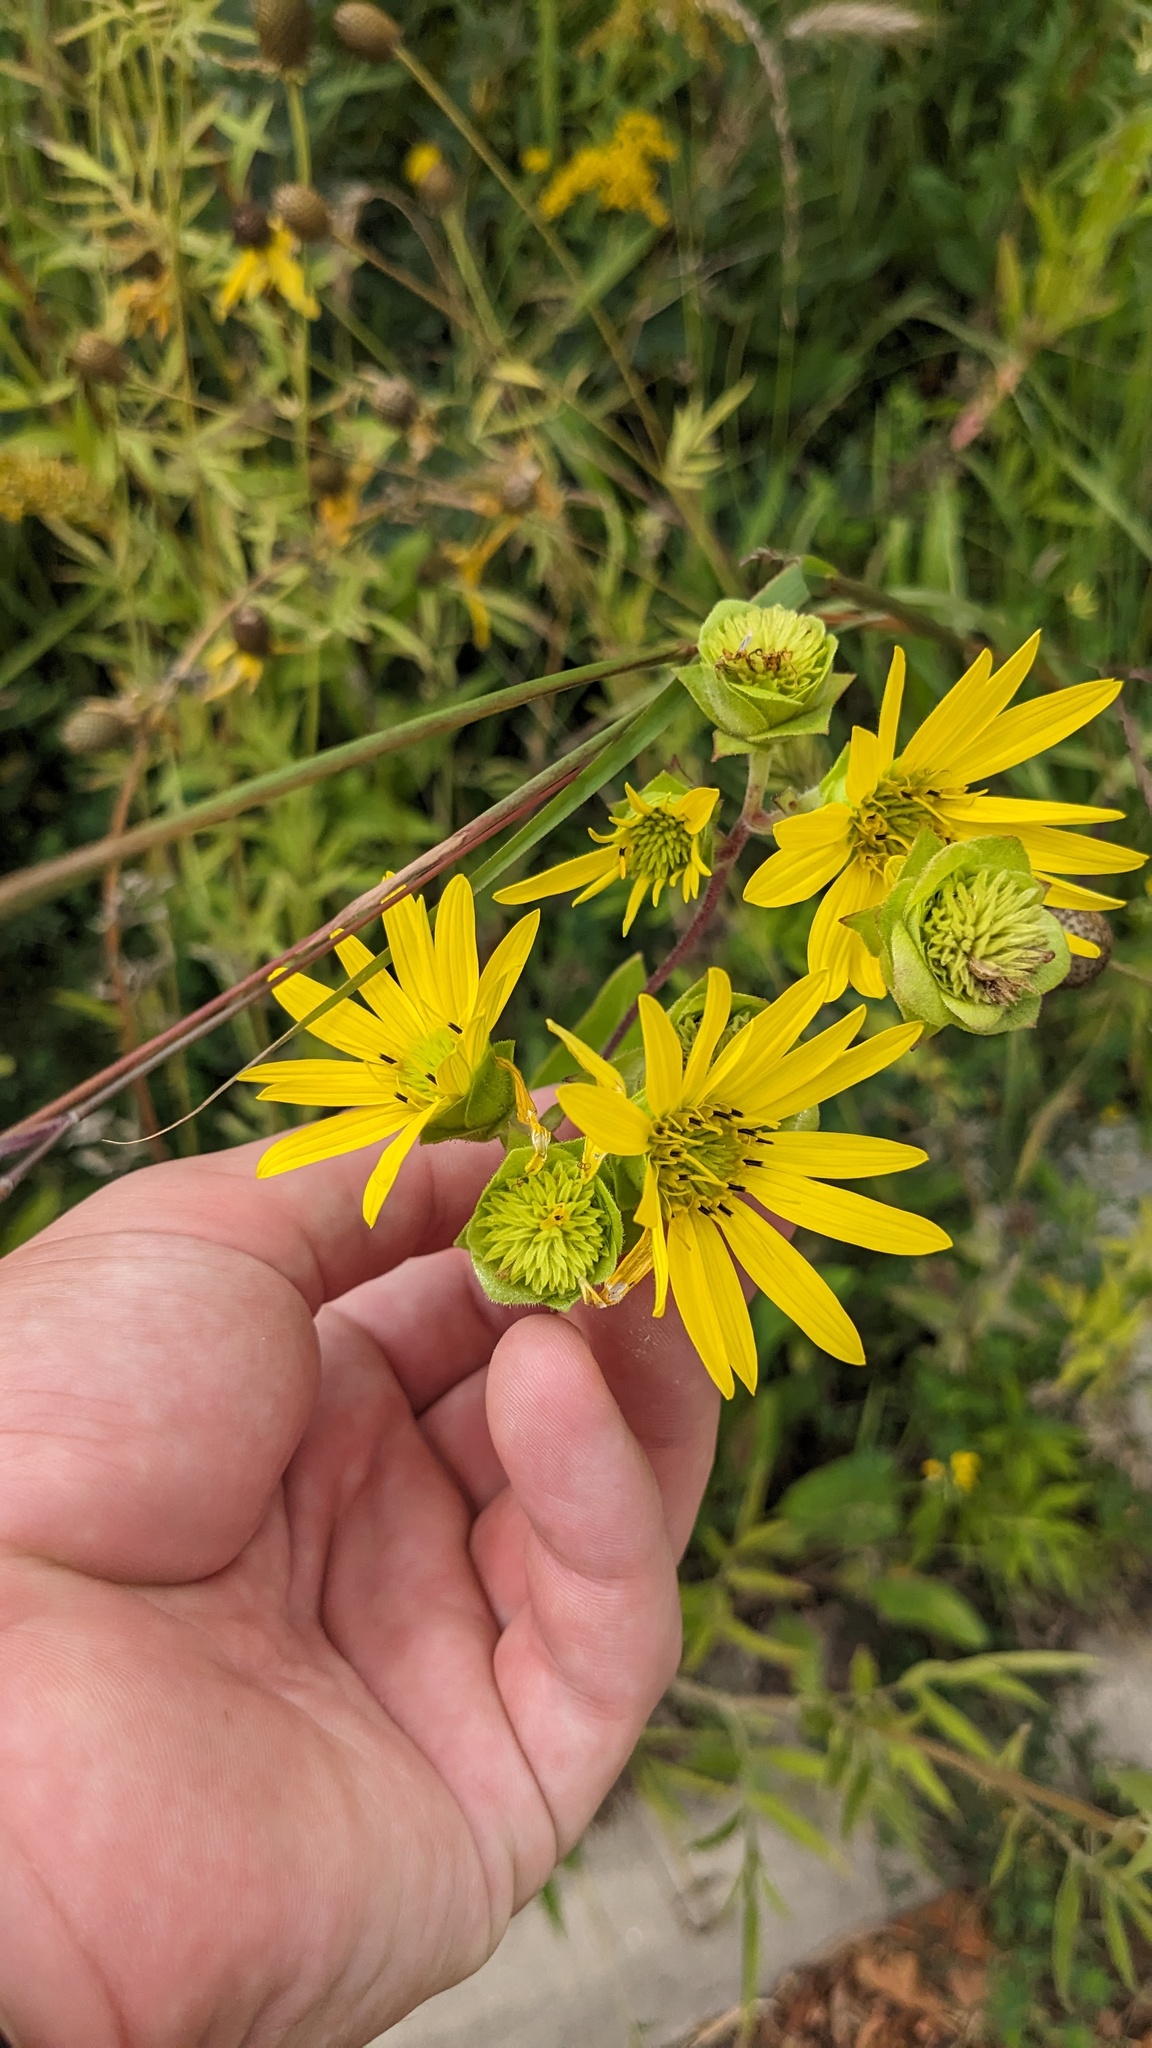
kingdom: Plantae
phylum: Tracheophyta
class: Magnoliopsida
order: Asterales
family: Asteraceae
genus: Silphium
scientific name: Silphium integrifolium
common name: Whole-leaf rosinweed
